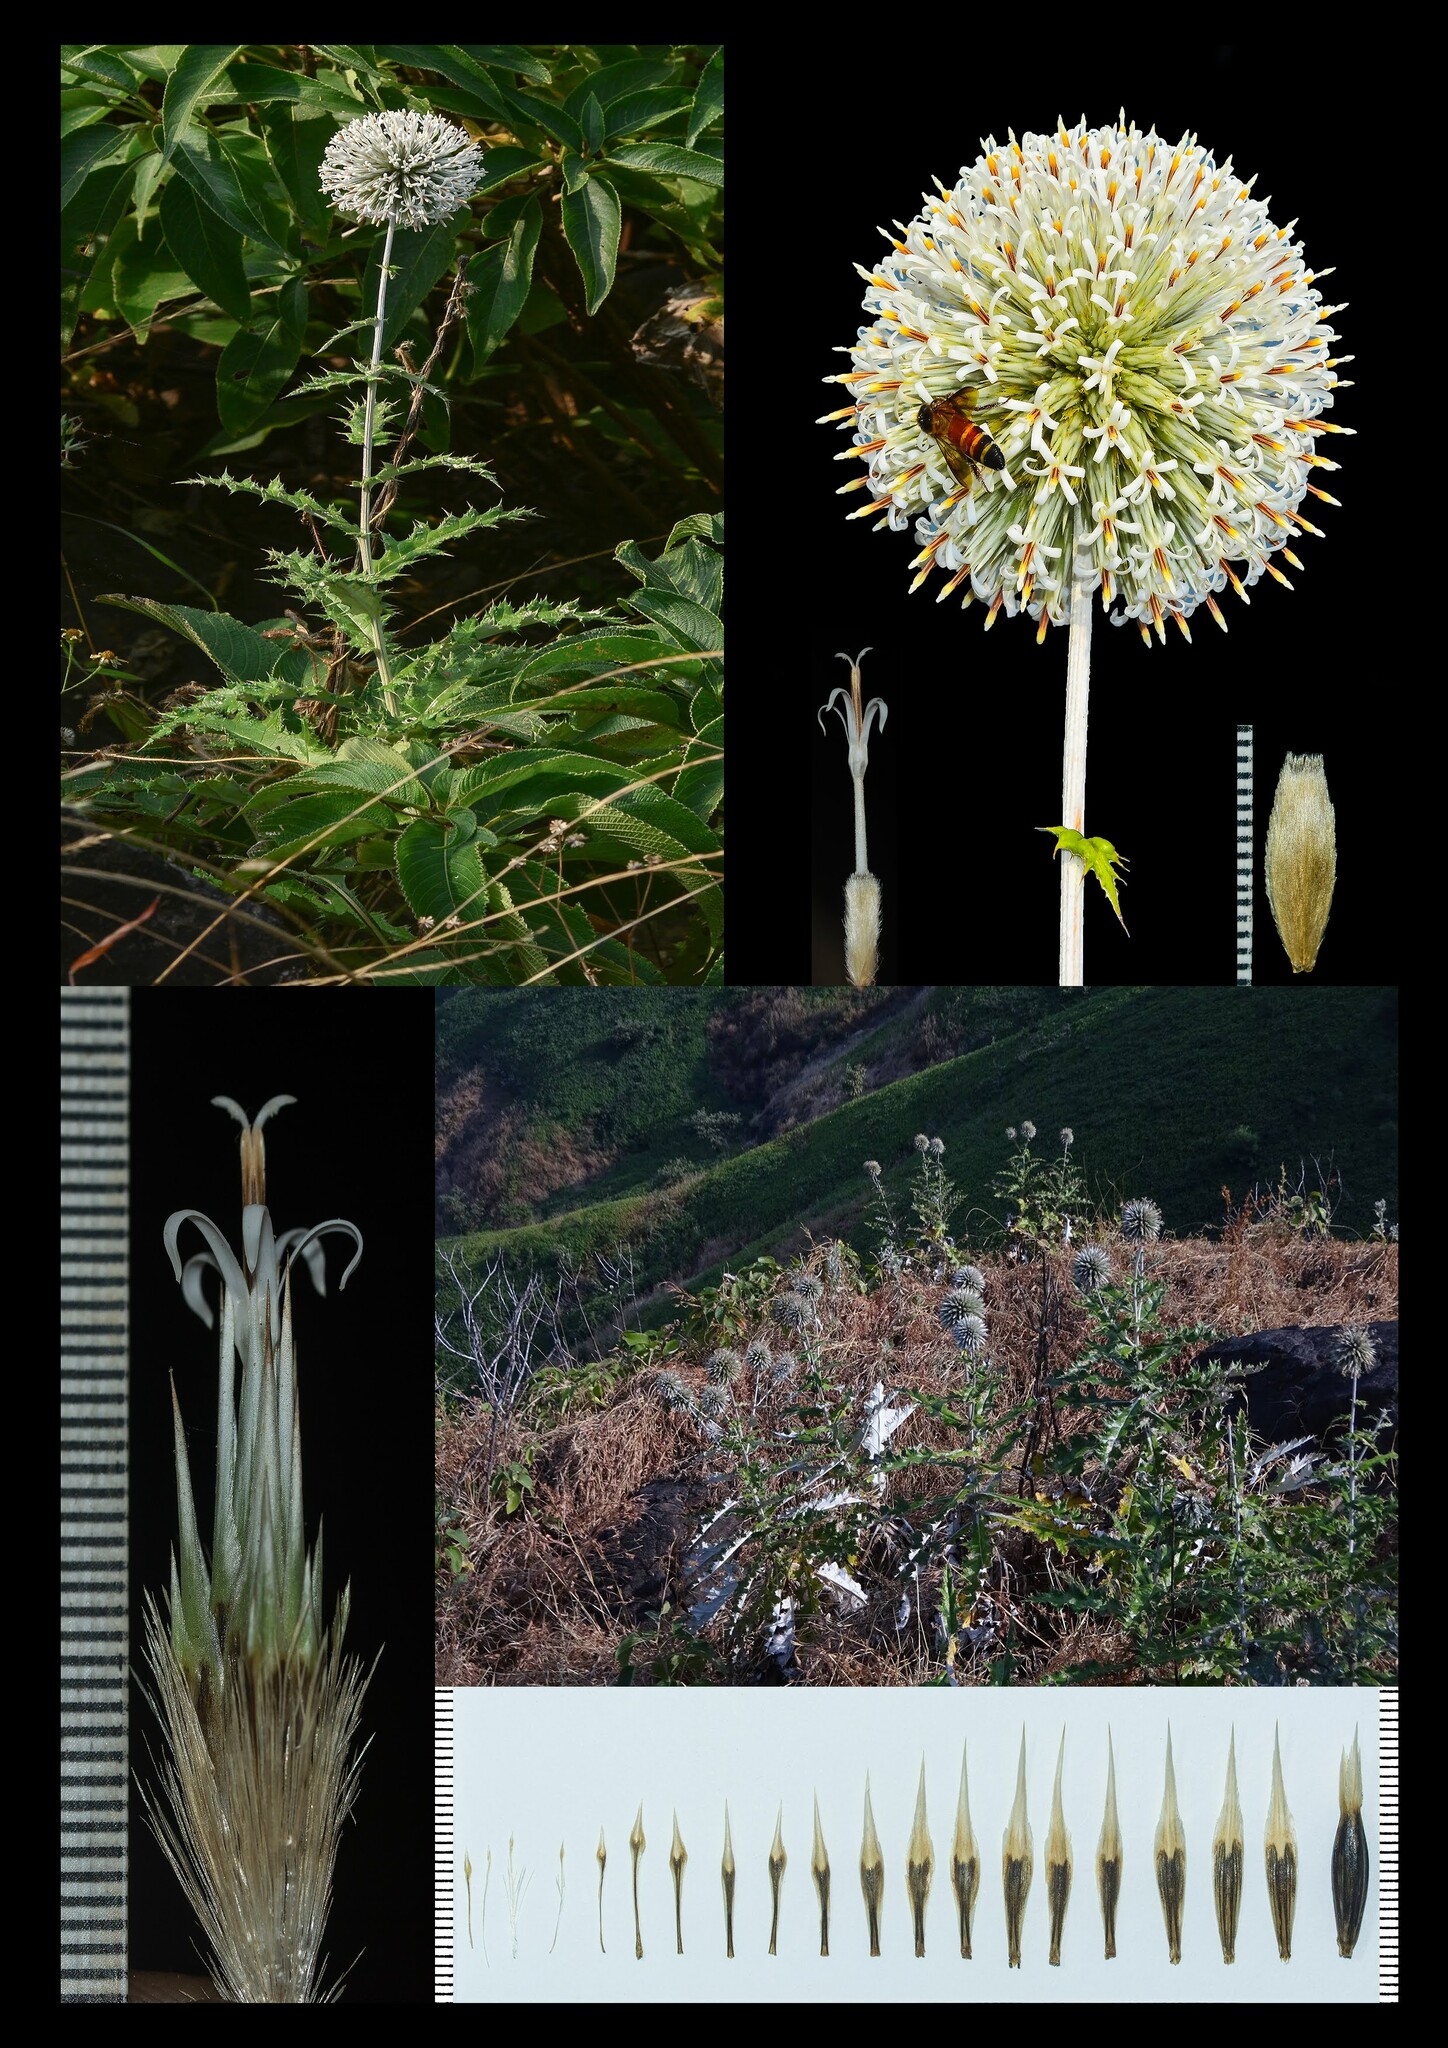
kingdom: Plantae
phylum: Tracheophyta
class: Magnoliopsida
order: Asterales
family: Asteraceae
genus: Echinops
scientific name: Echinops sahyadricus
